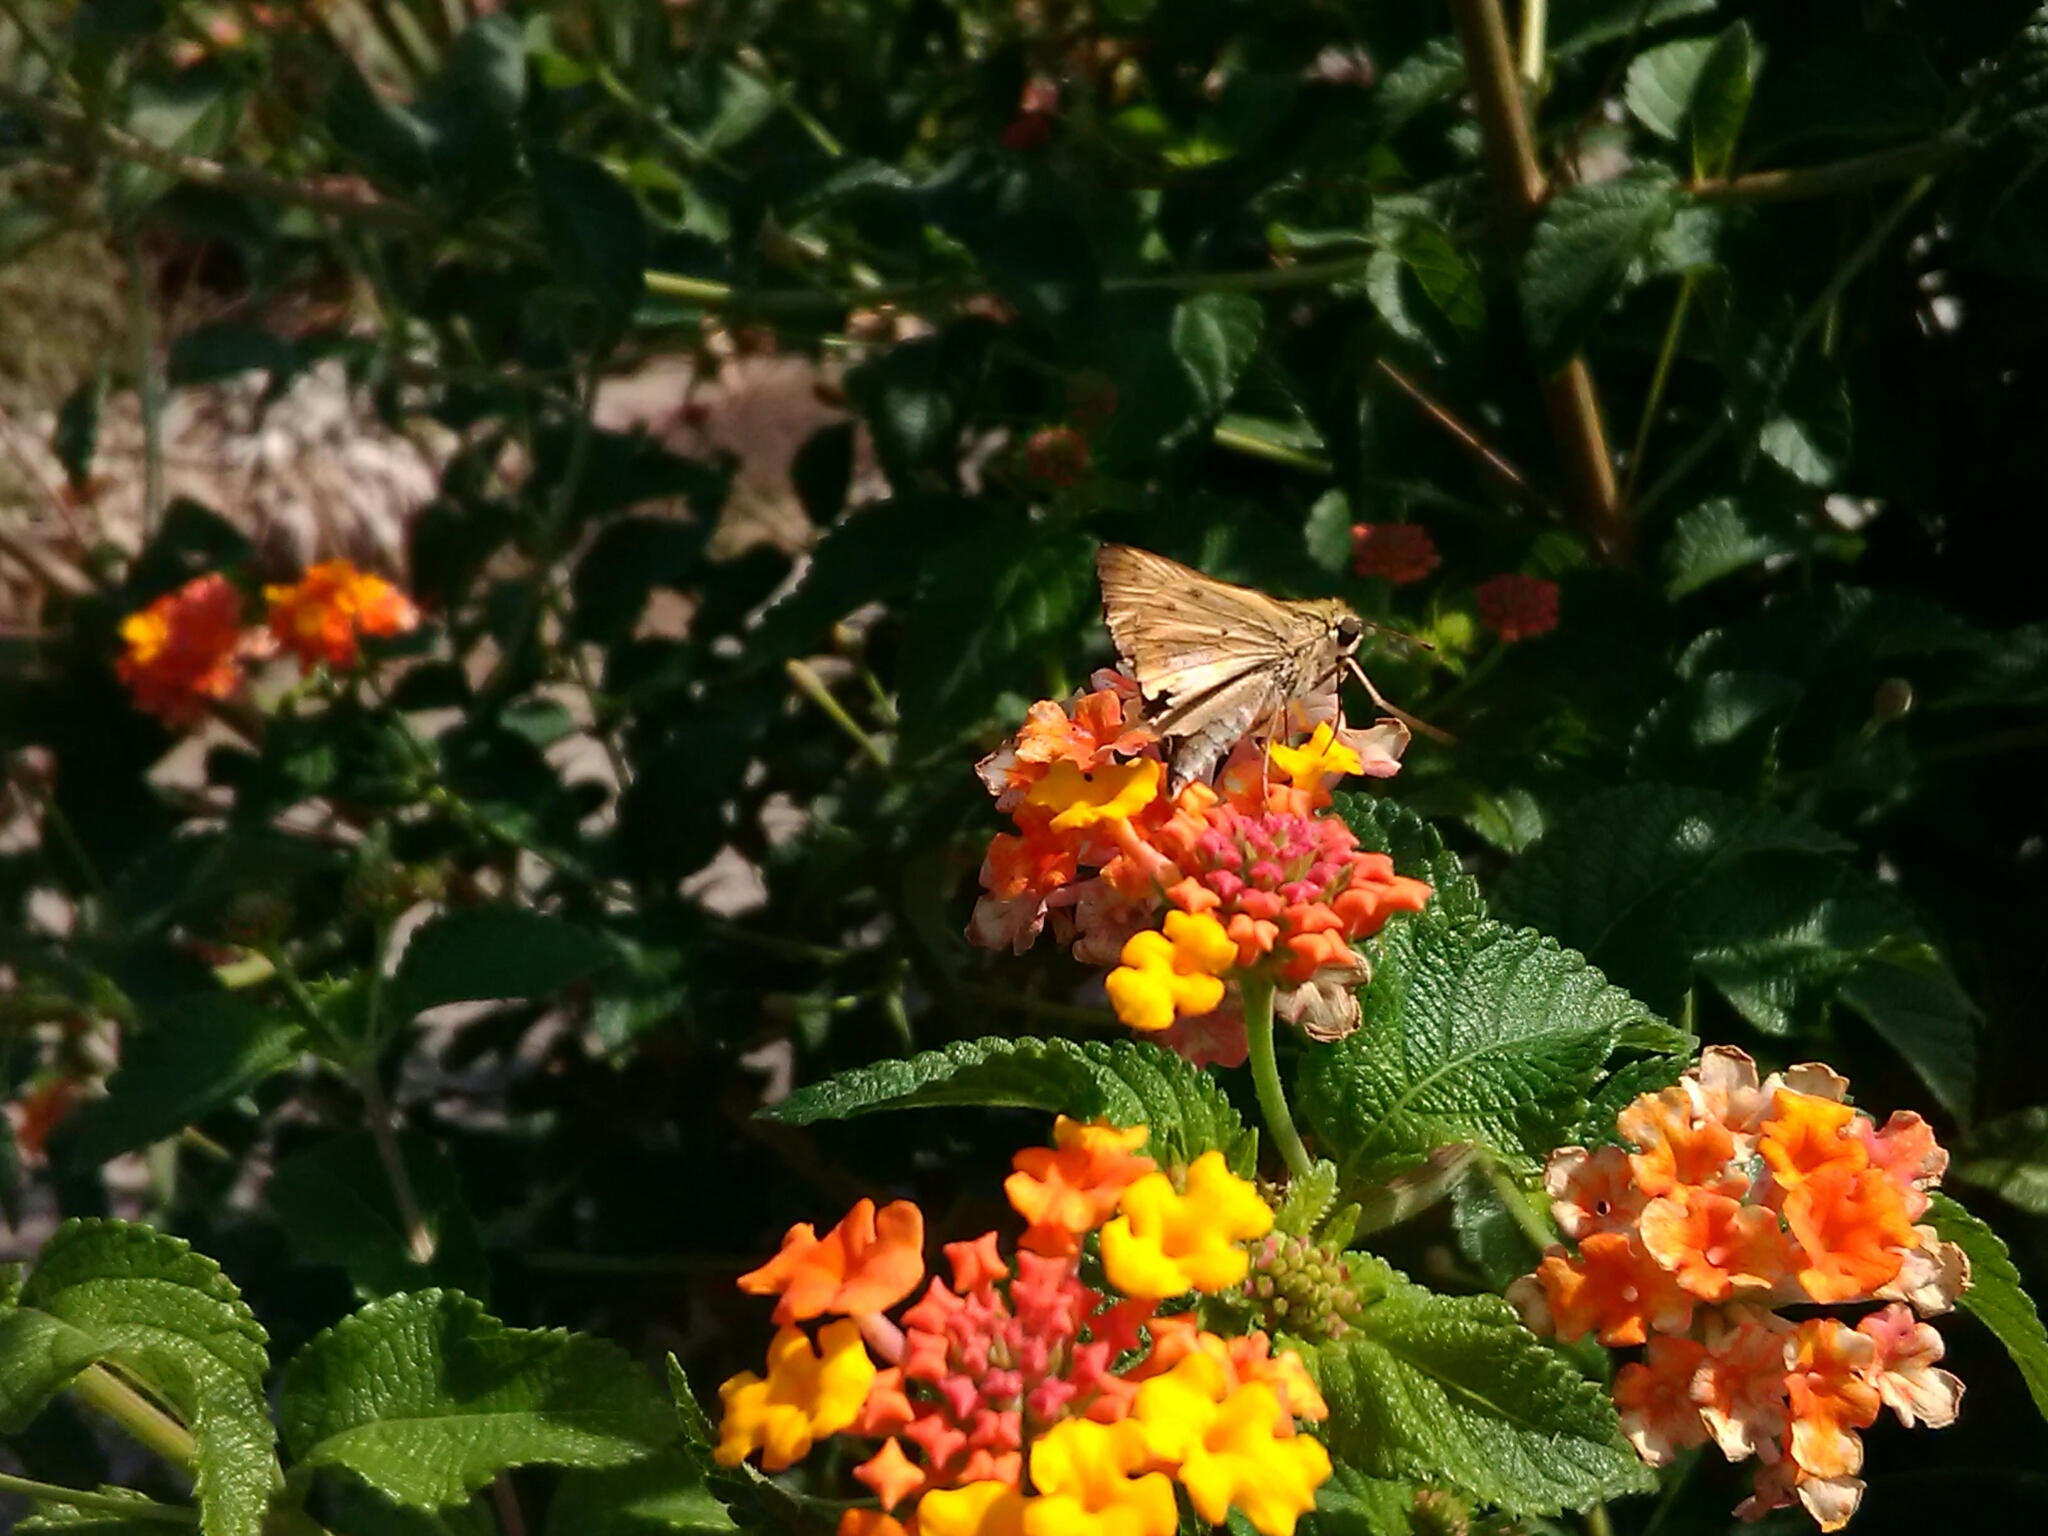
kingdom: Animalia
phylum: Arthropoda
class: Insecta
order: Lepidoptera
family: Hesperiidae
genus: Hylephila
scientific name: Hylephila phyleus
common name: Fiery skipper
